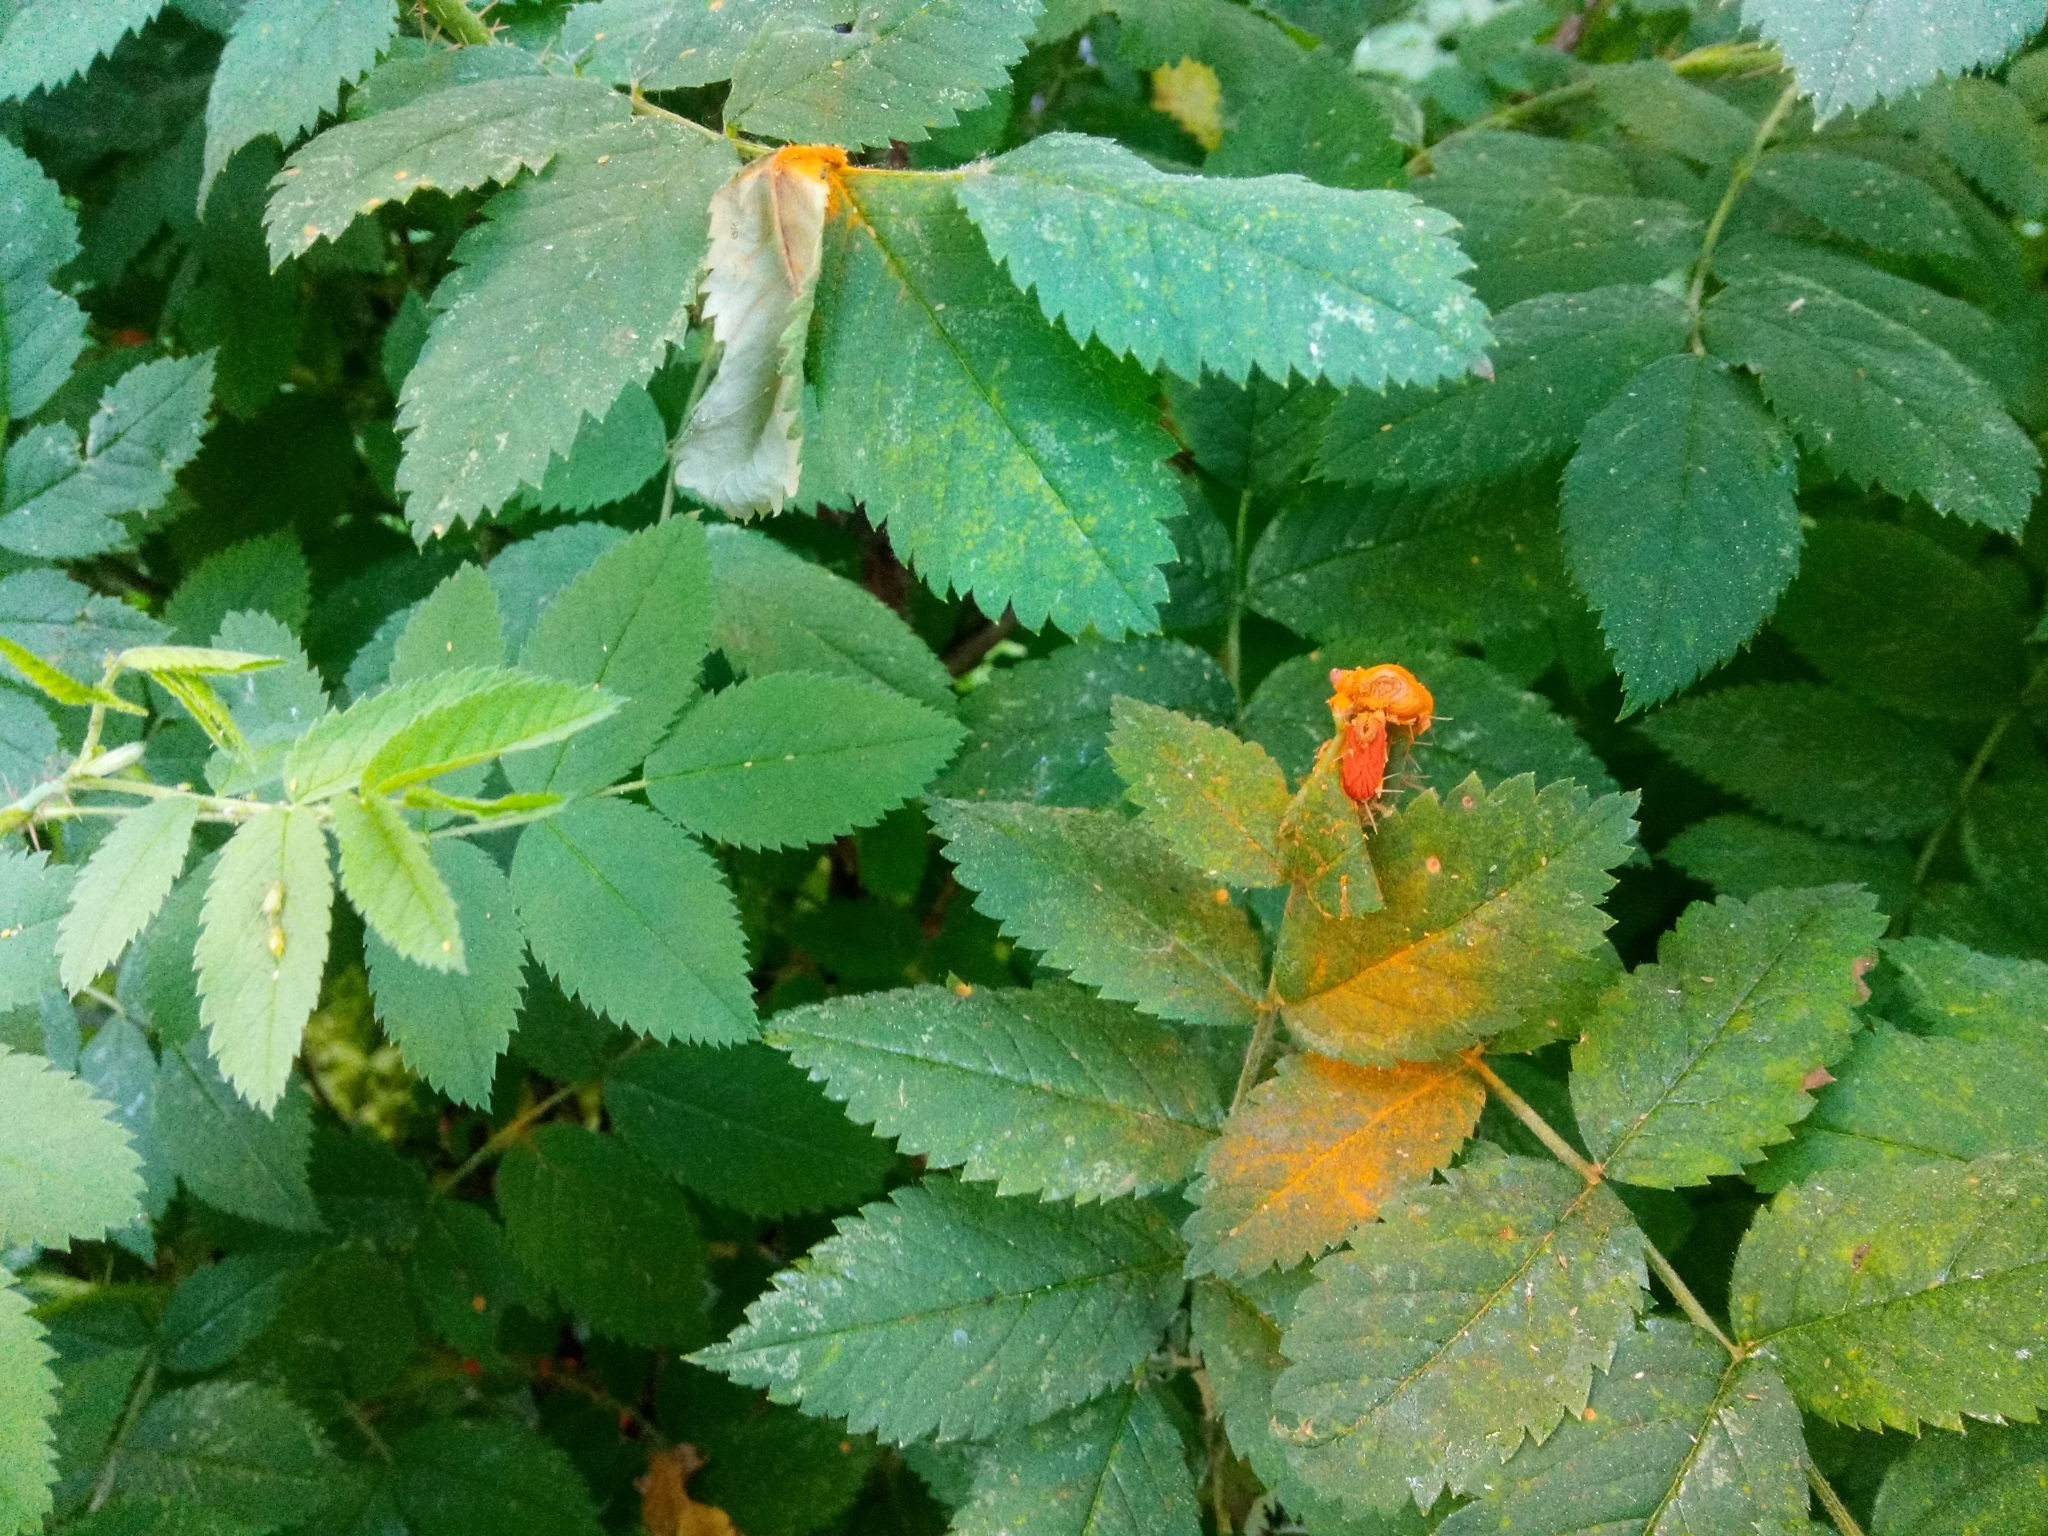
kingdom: Fungi
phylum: Basidiomycota
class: Pucciniomycetes
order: Pucciniales
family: Phragmidiaceae
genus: Phragmidium
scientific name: Phragmidium
